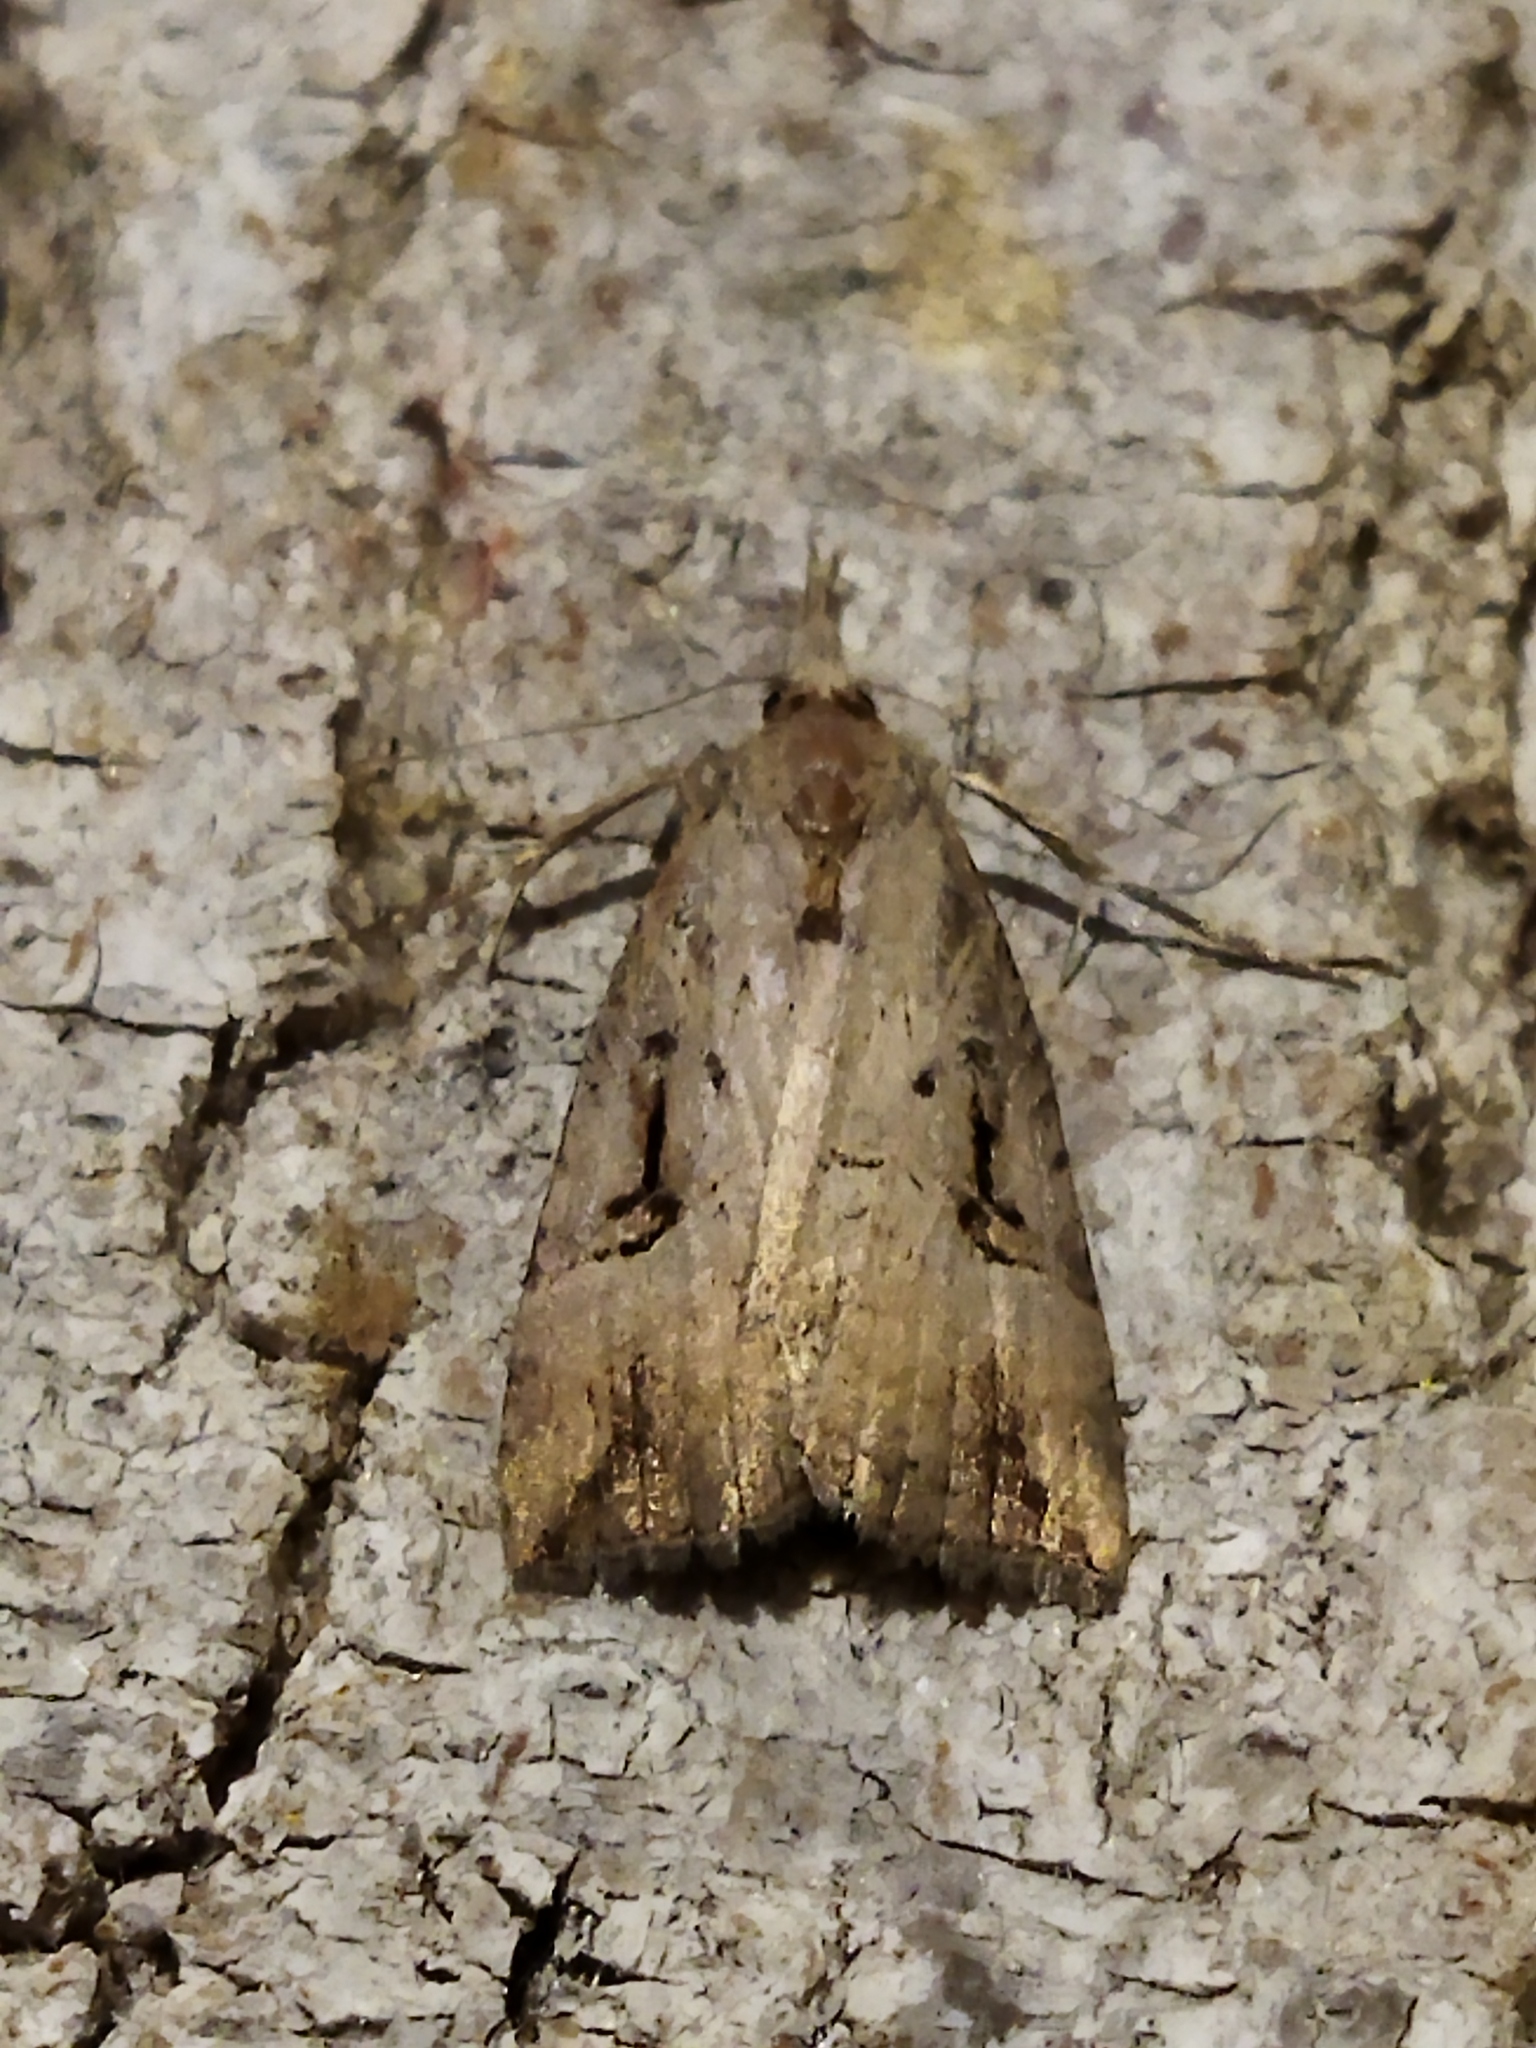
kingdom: Animalia
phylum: Arthropoda
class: Insecta
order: Lepidoptera
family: Erebidae
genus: Hypena
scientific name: Hypena rostralis
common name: Buttoned snout
